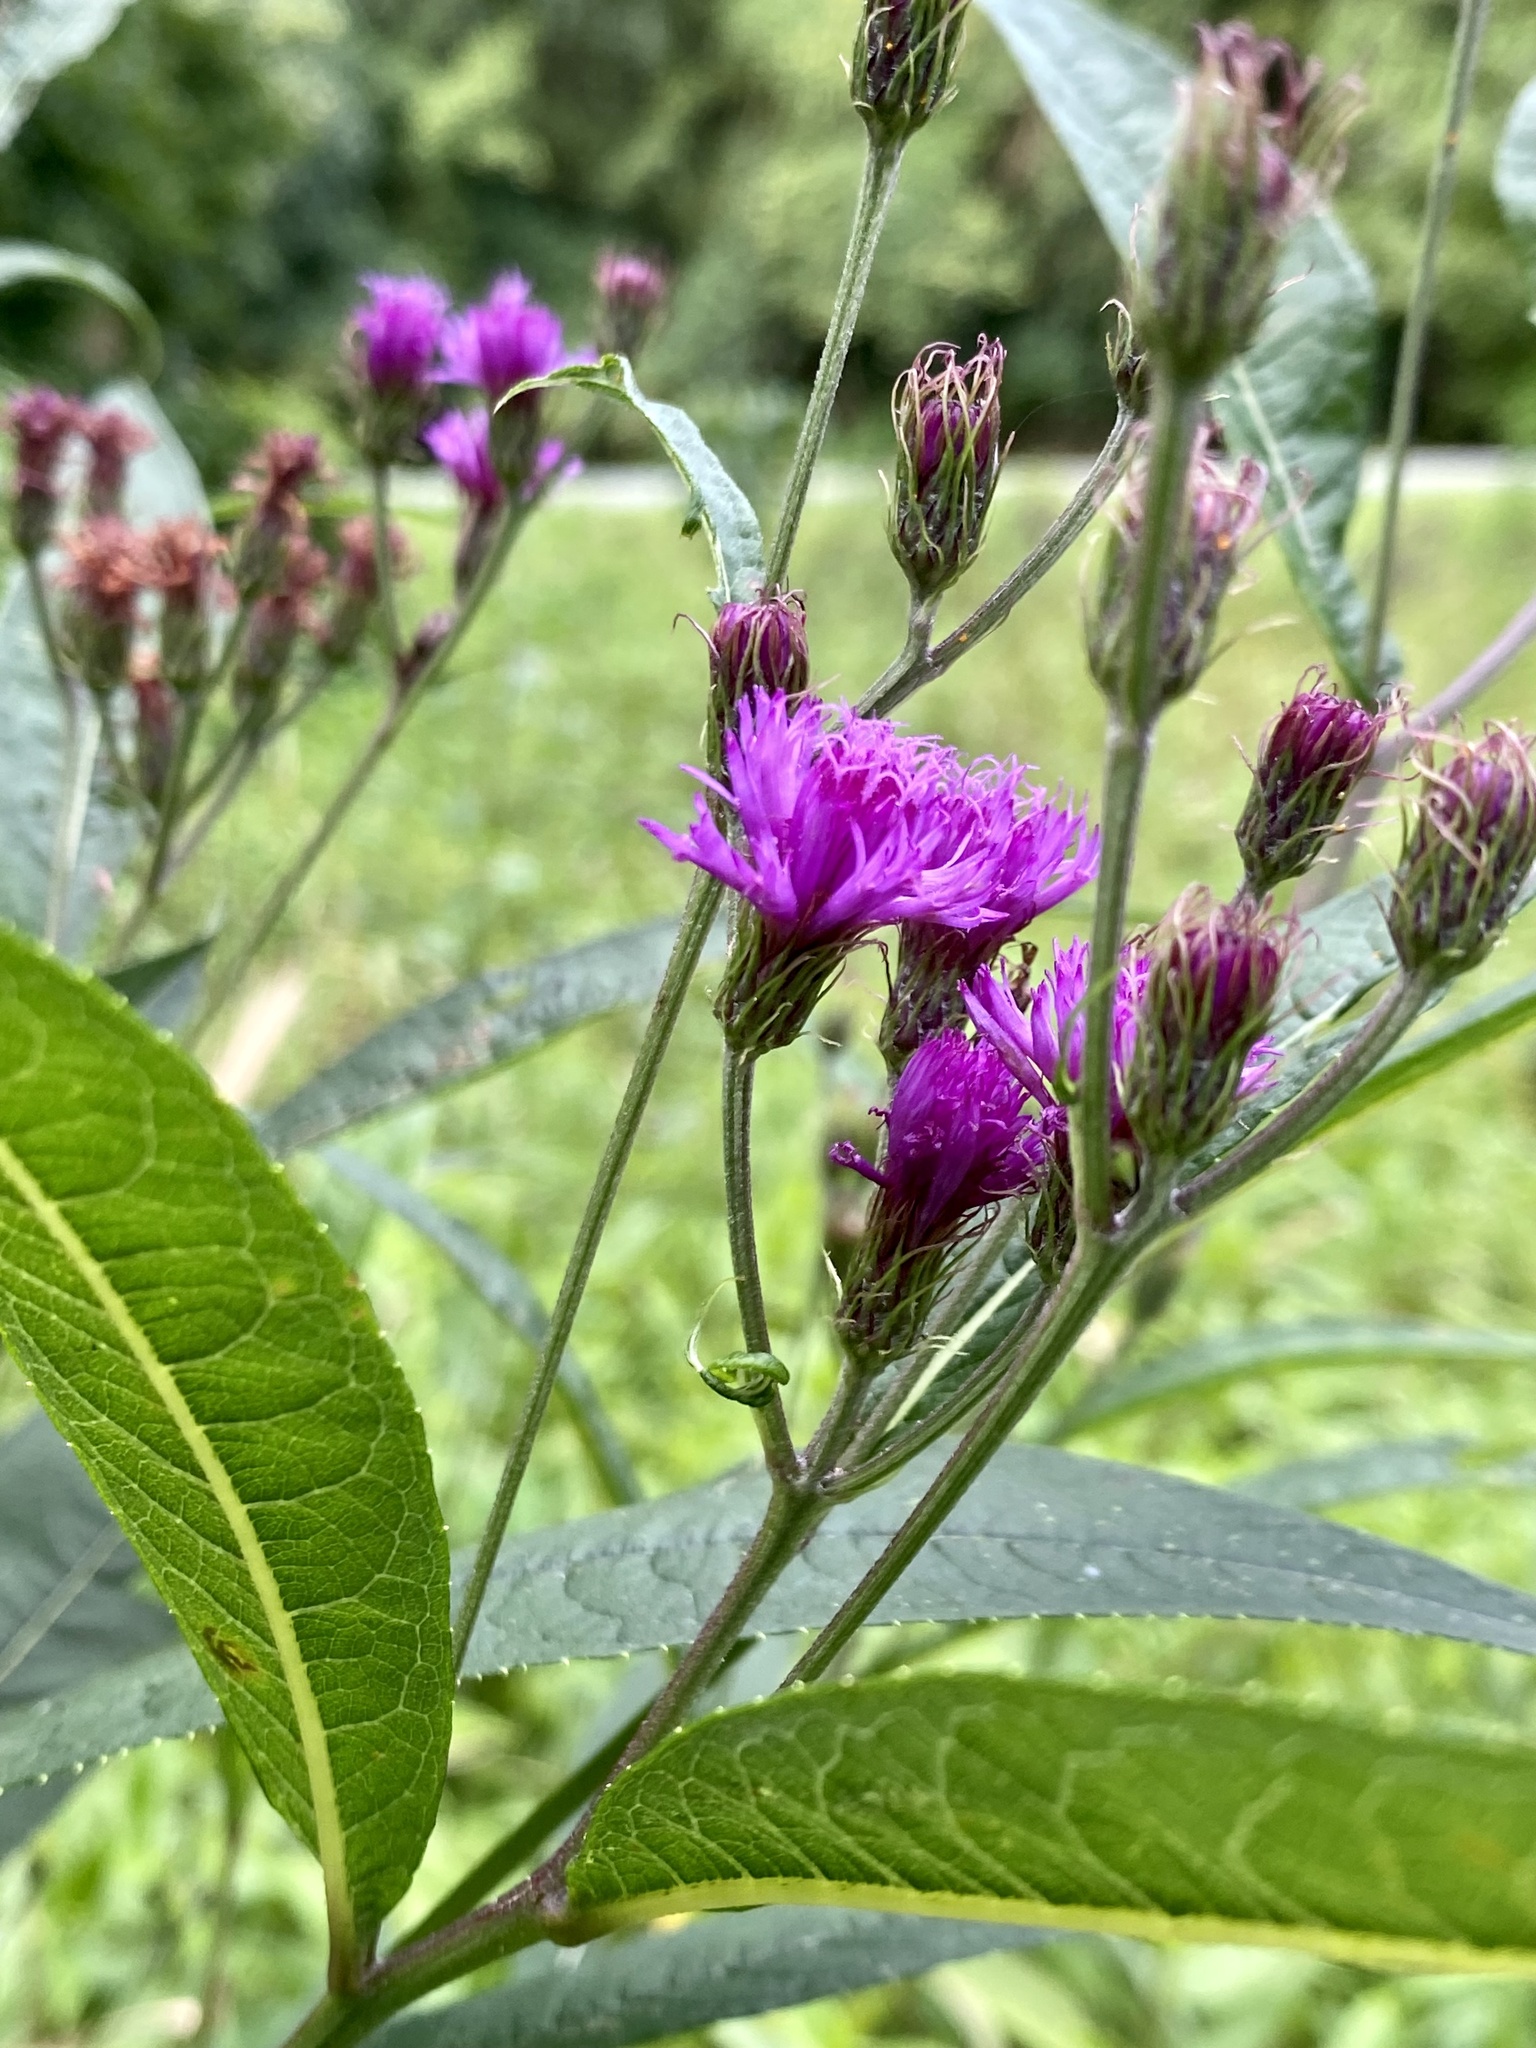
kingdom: Plantae
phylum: Tracheophyta
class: Magnoliopsida
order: Asterales
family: Asteraceae
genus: Vernonia
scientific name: Vernonia noveboracensis
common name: New york ironweed
